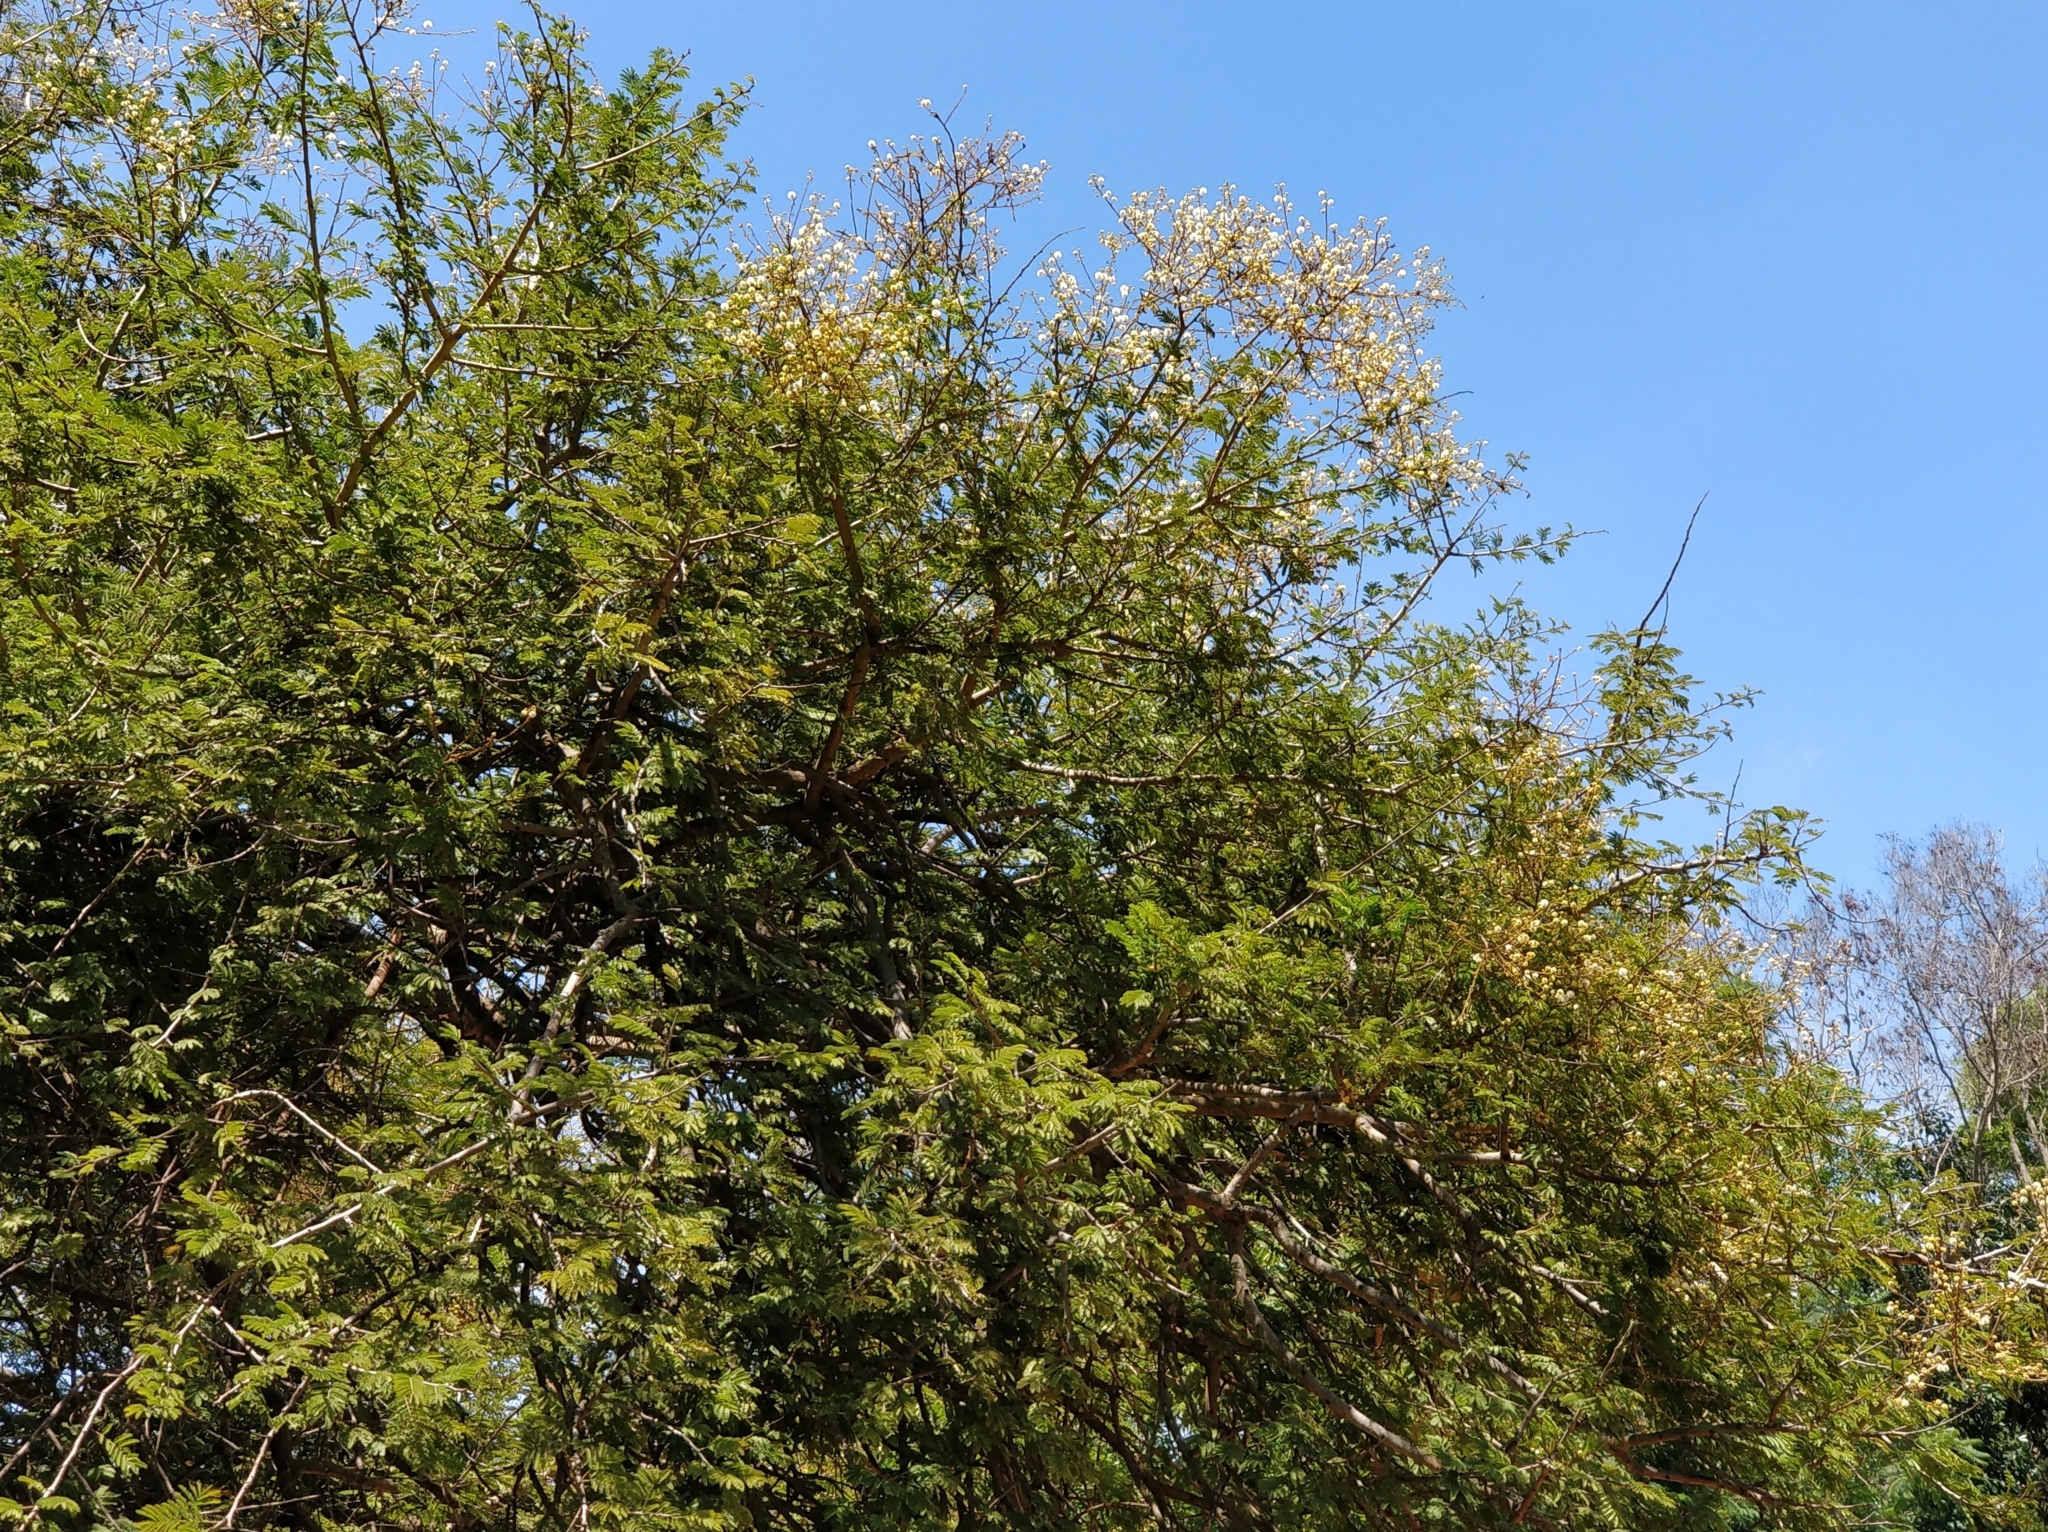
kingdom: Plantae
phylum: Tracheophyta
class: Magnoliopsida
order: Fabales
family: Fabaceae
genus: Vachellia
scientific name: Vachellia leucophloea
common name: Distiller's acacia
